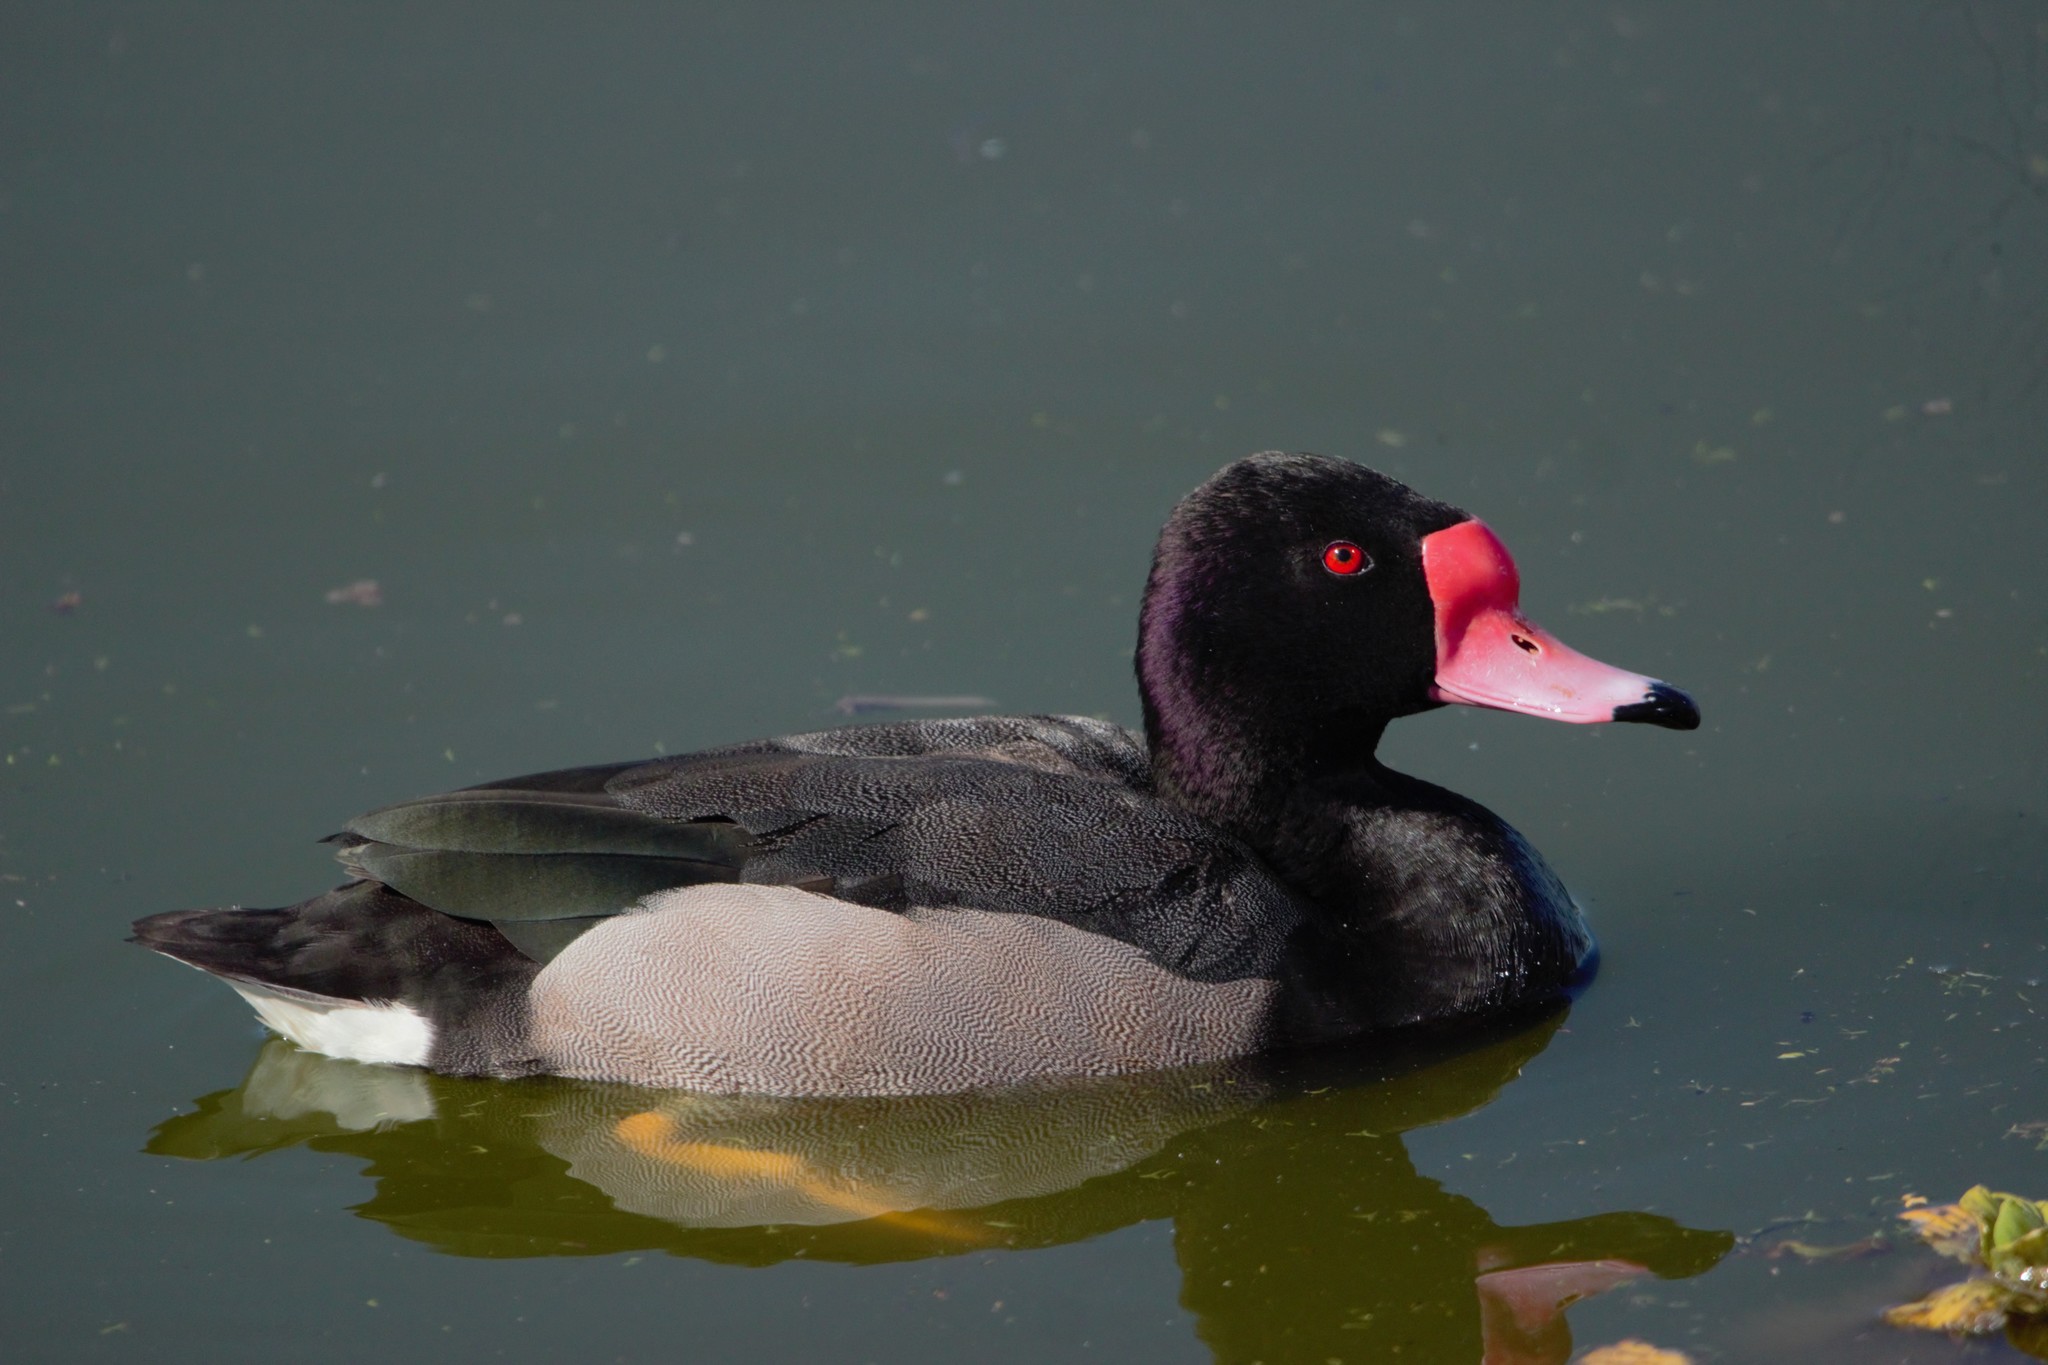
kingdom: Animalia
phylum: Chordata
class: Aves
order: Anseriformes
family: Anatidae
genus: Netta
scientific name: Netta peposaca
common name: Rosy-billed pochard
